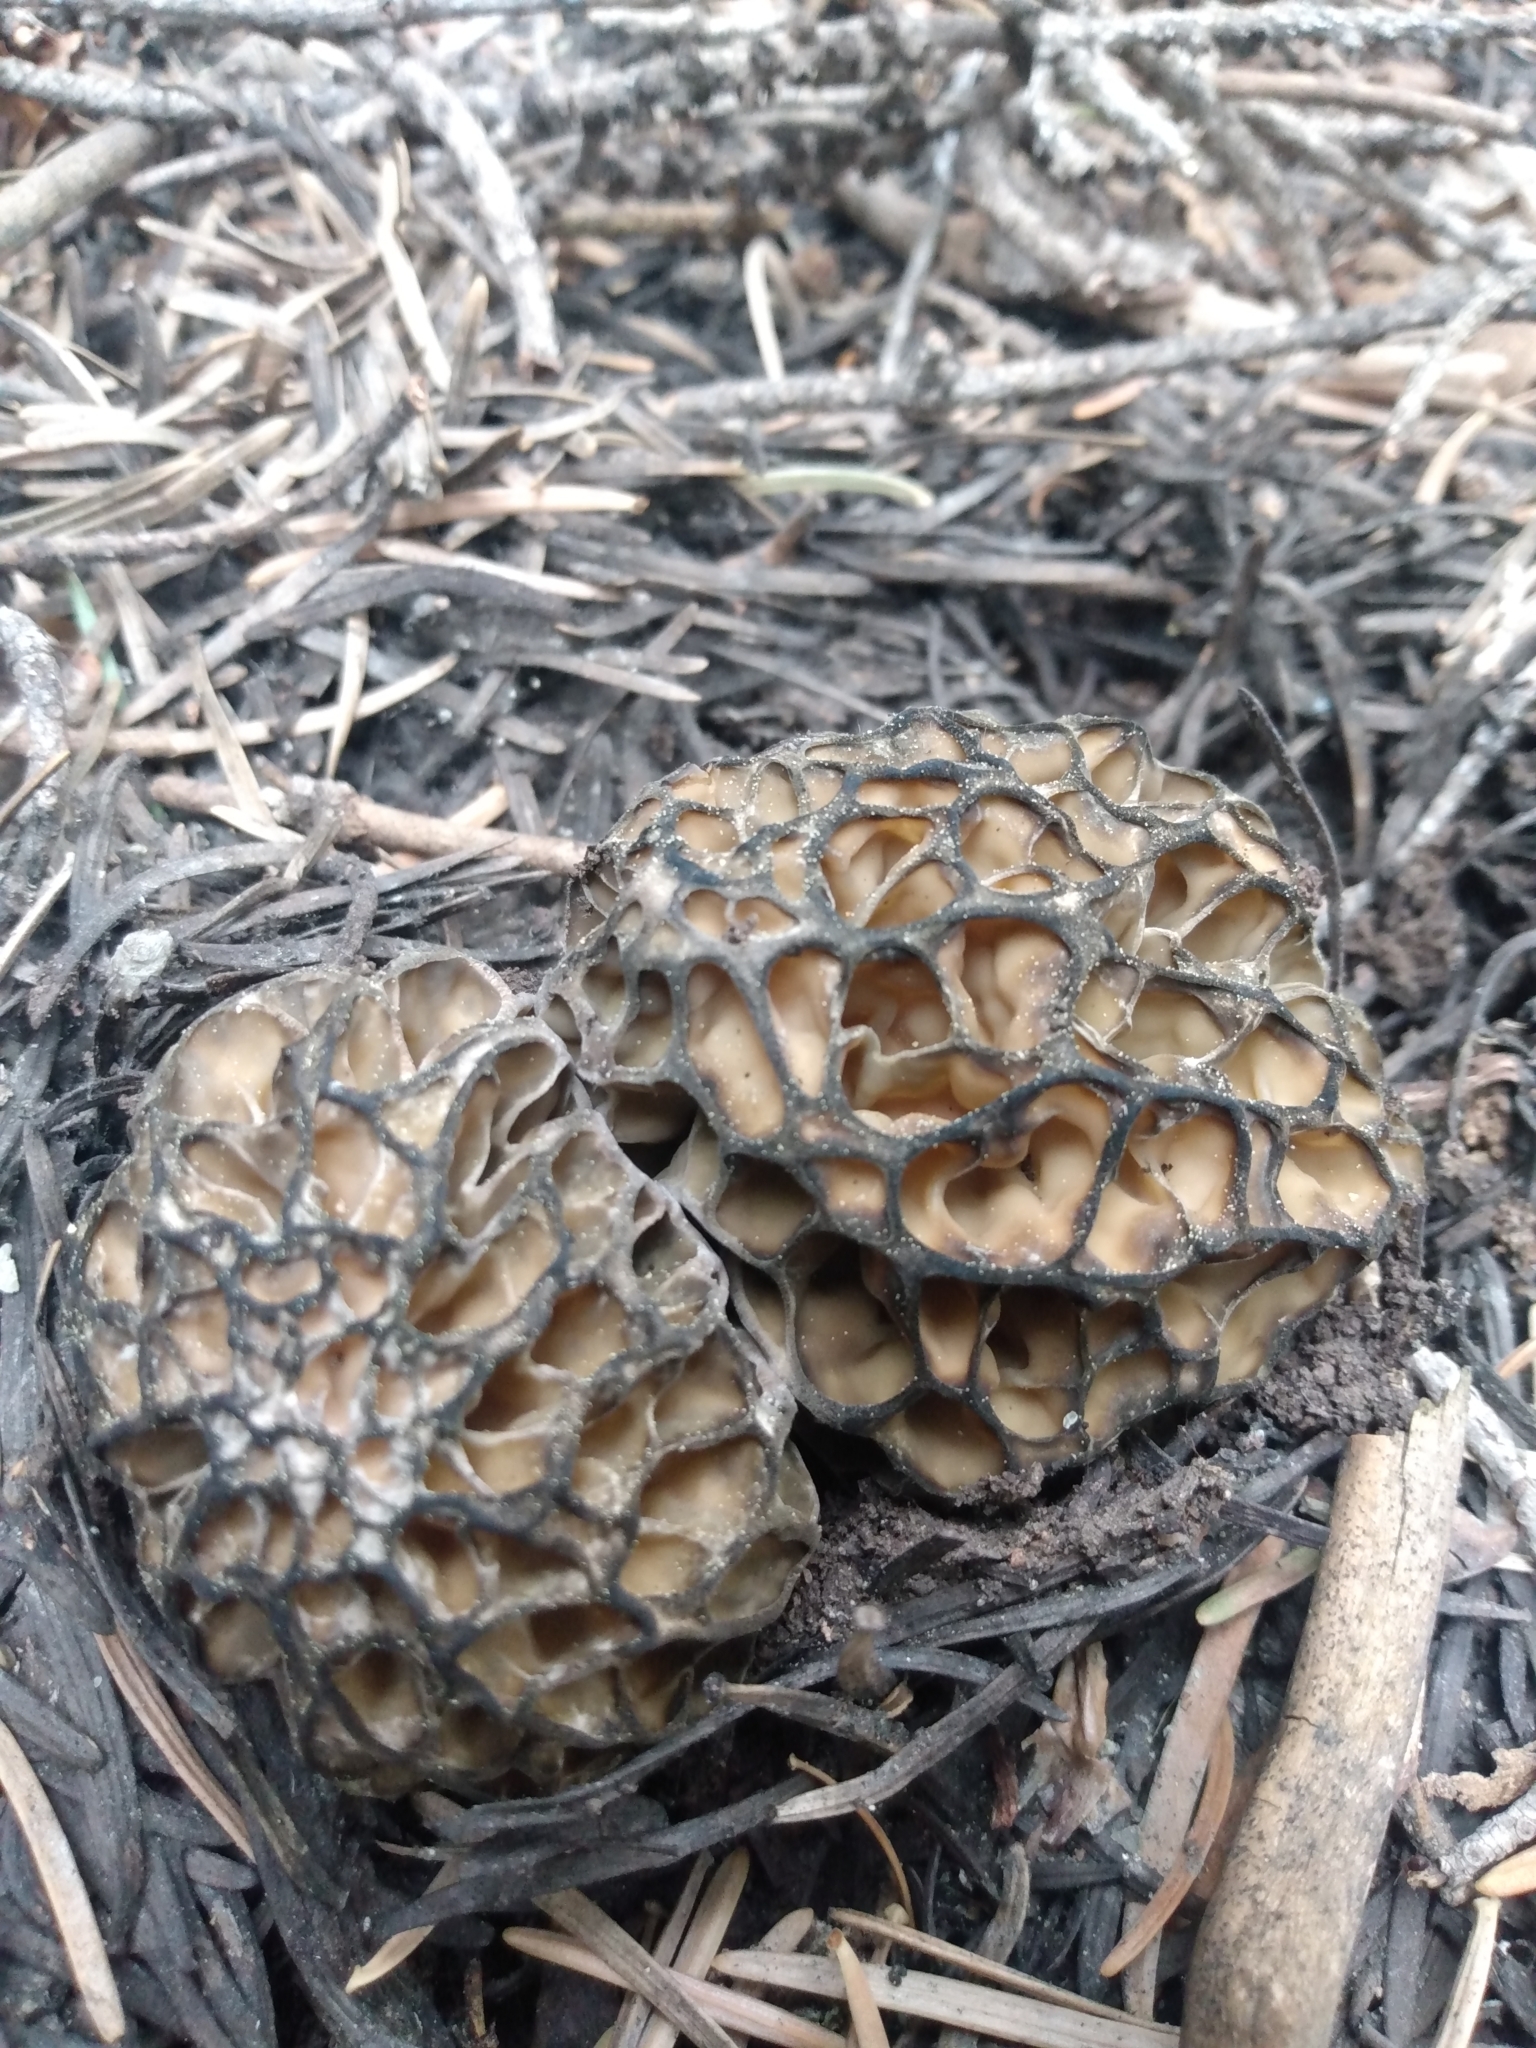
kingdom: Fungi
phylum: Ascomycota
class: Pezizomycetes
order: Pezizales
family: Morchellaceae
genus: Morchella
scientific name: Morchella snyderi
